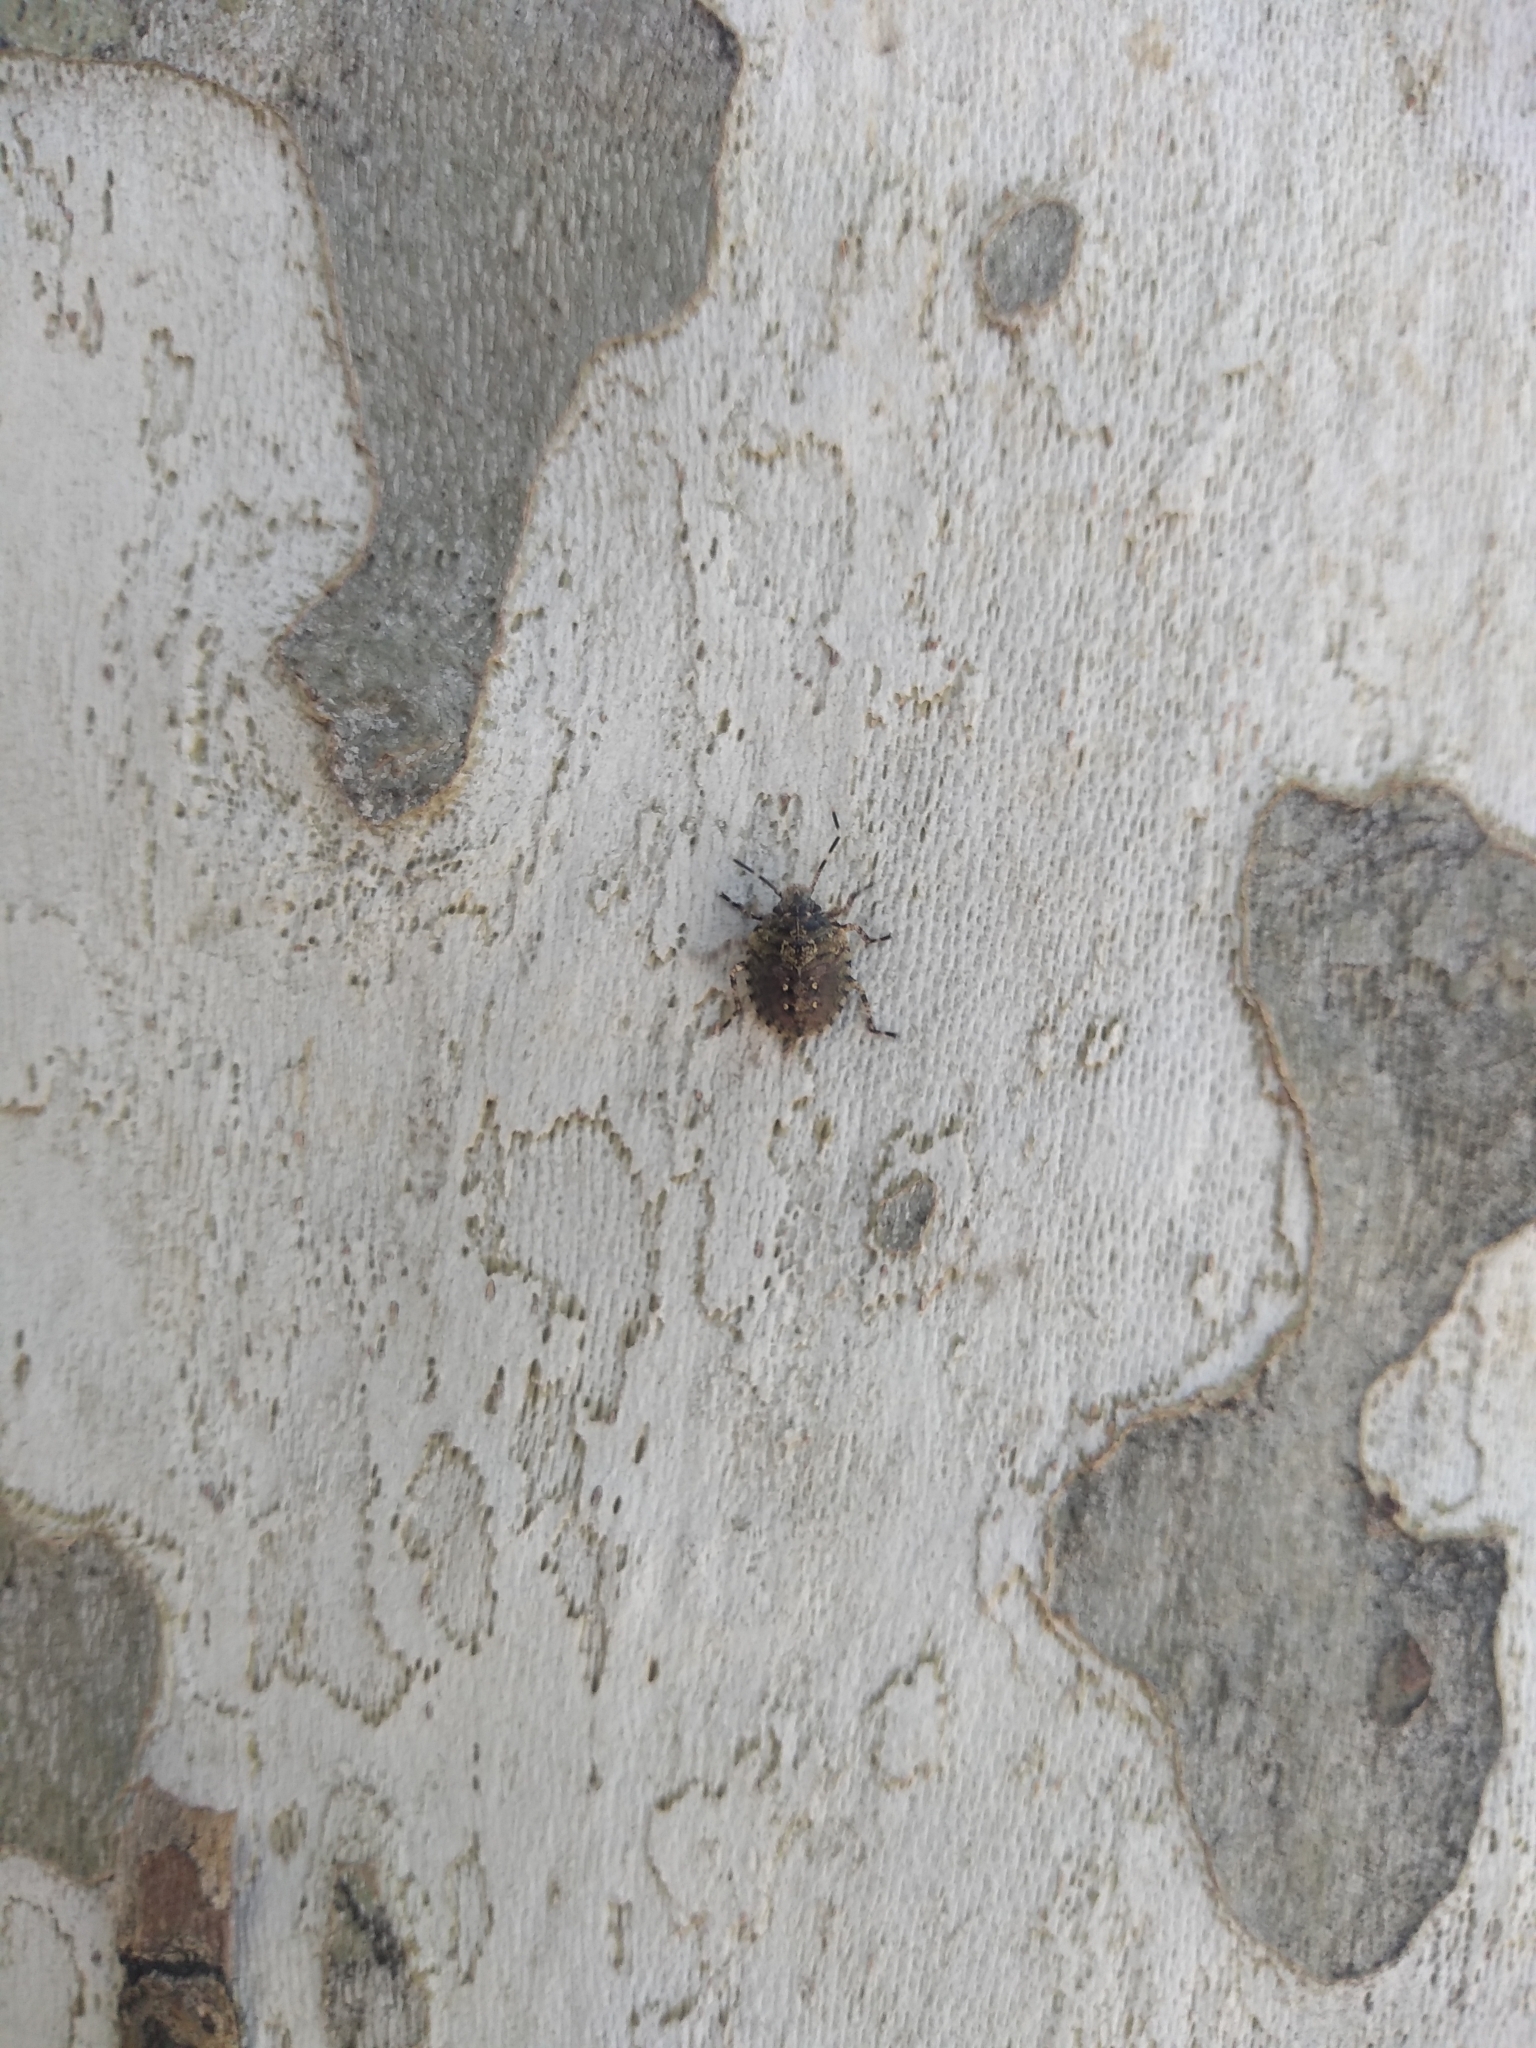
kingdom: Animalia
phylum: Arthropoda
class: Insecta
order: Hemiptera
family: Pentatomidae
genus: Antiteuchus
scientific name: Antiteuchus mixtus
